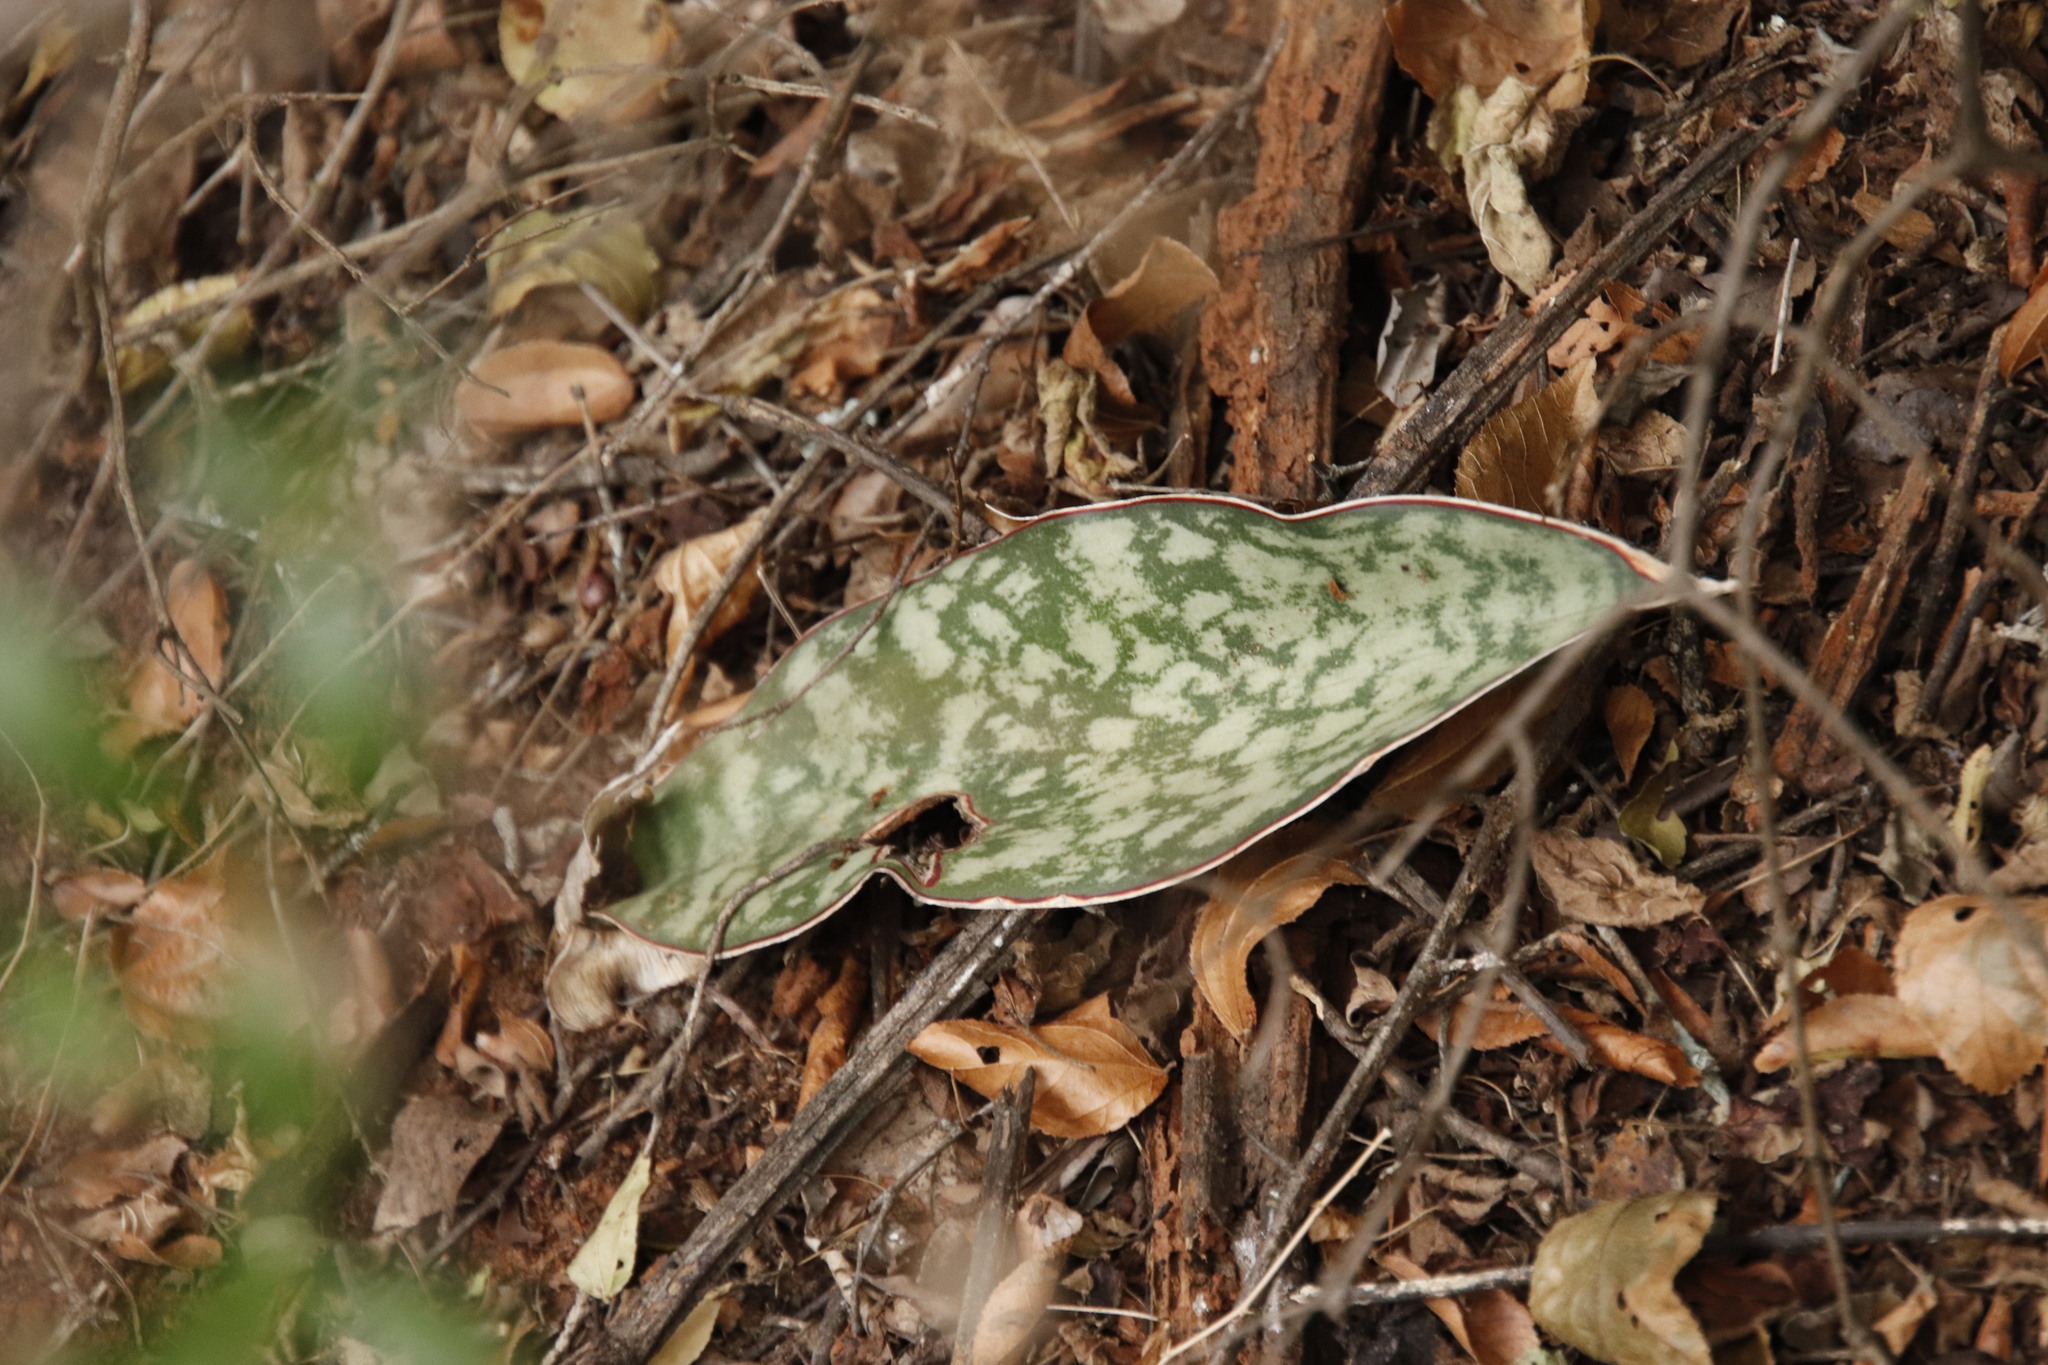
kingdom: Plantae
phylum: Tracheophyta
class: Liliopsida
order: Asparagales
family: Asparagaceae
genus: Dracaena
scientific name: Dracaena hyacinthoides
